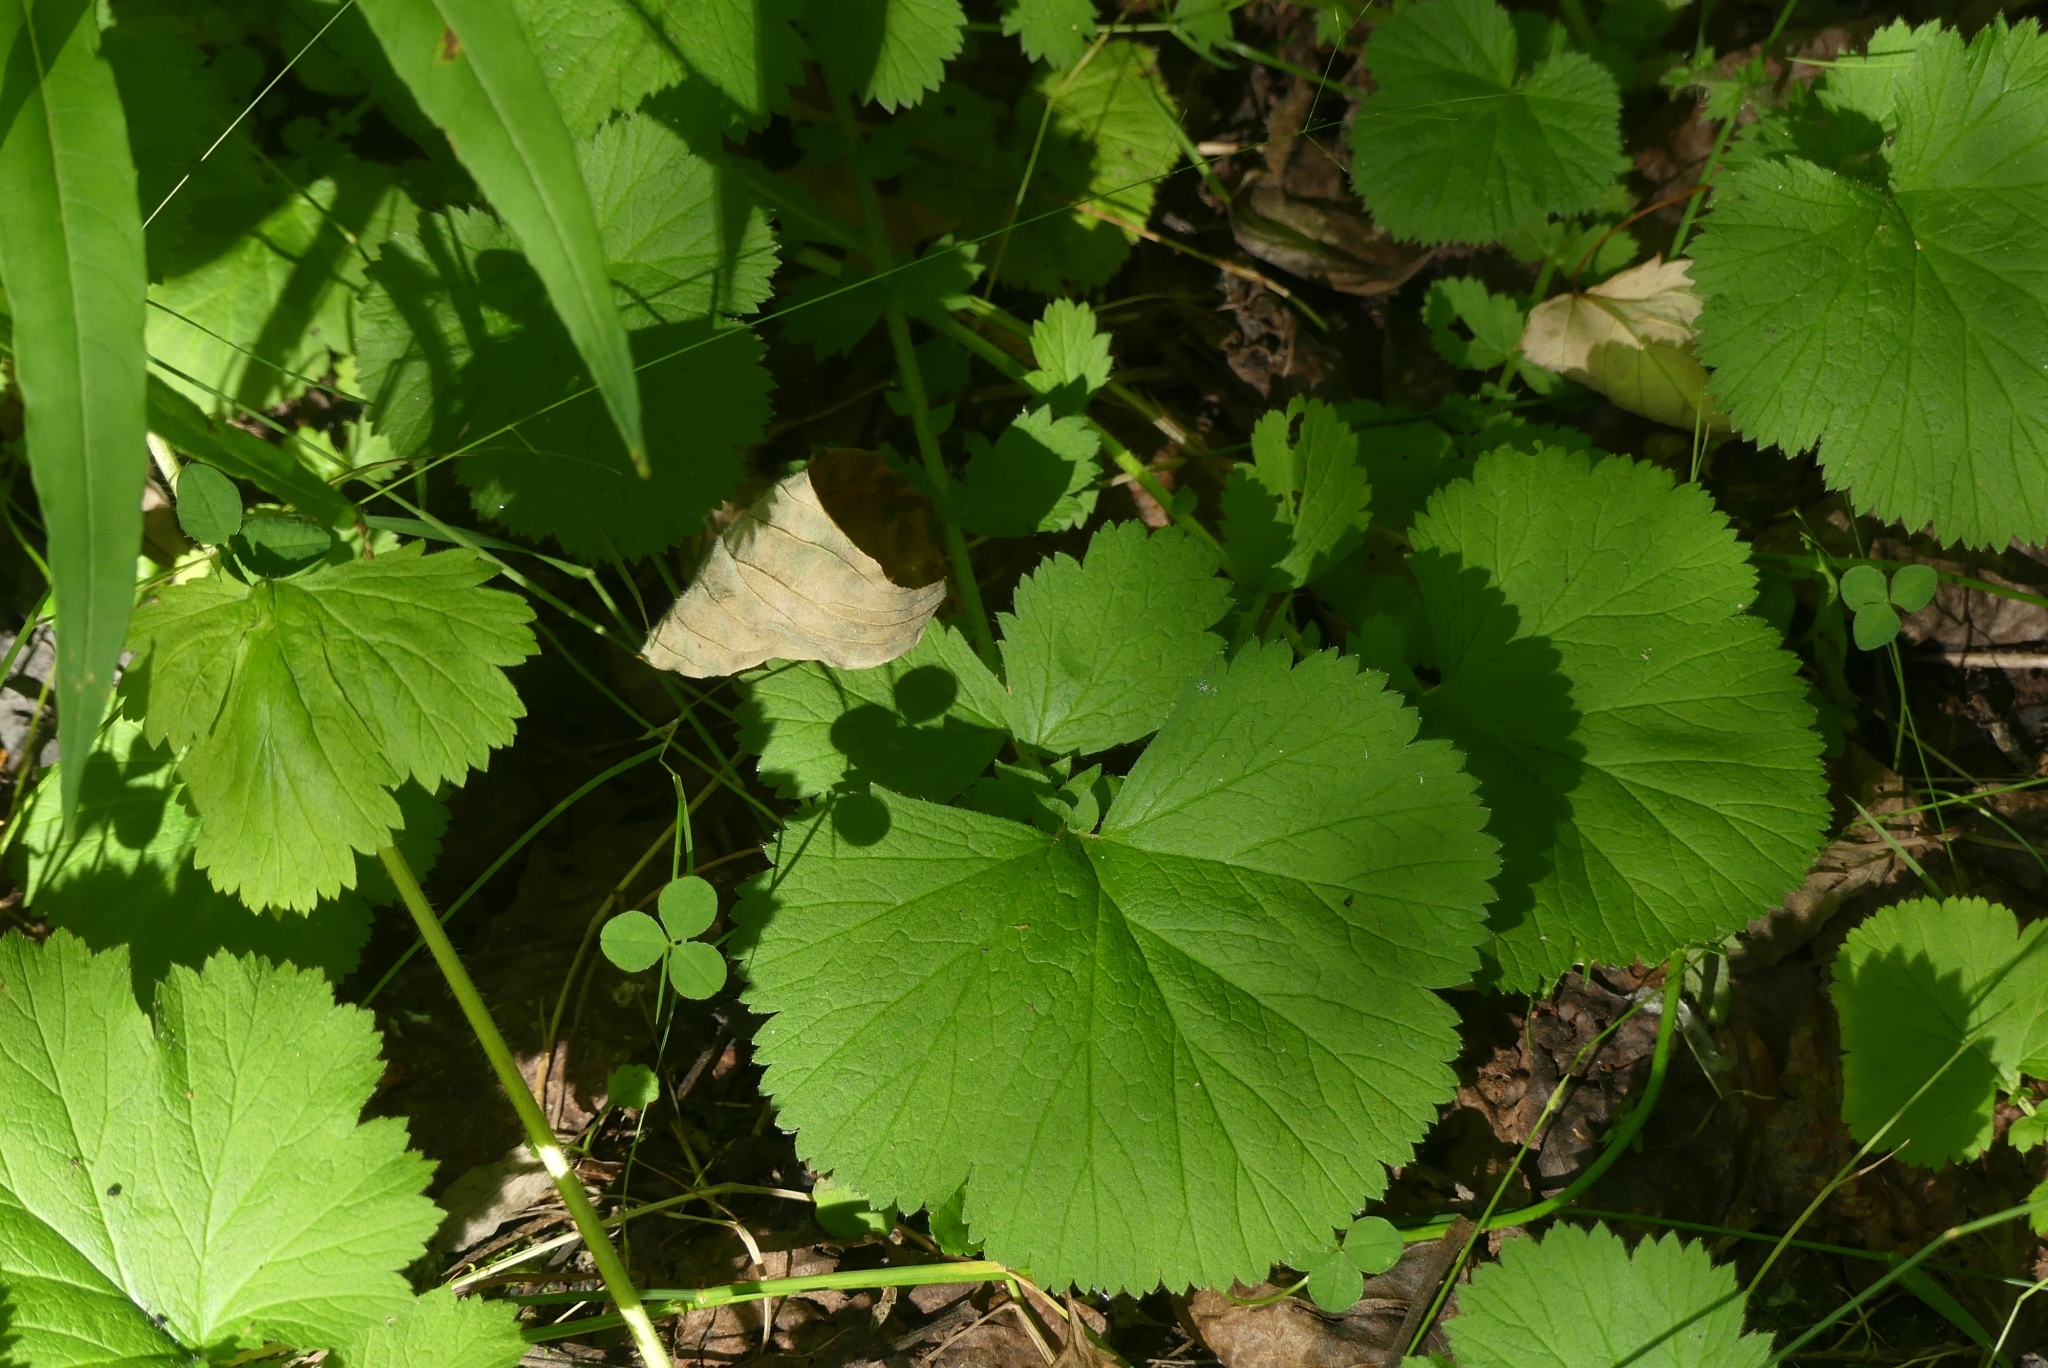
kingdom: Plantae
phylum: Tracheophyta
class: Magnoliopsida
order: Rosales
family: Rosaceae
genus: Geum
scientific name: Geum macrophyllum
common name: Large-leaved avens
